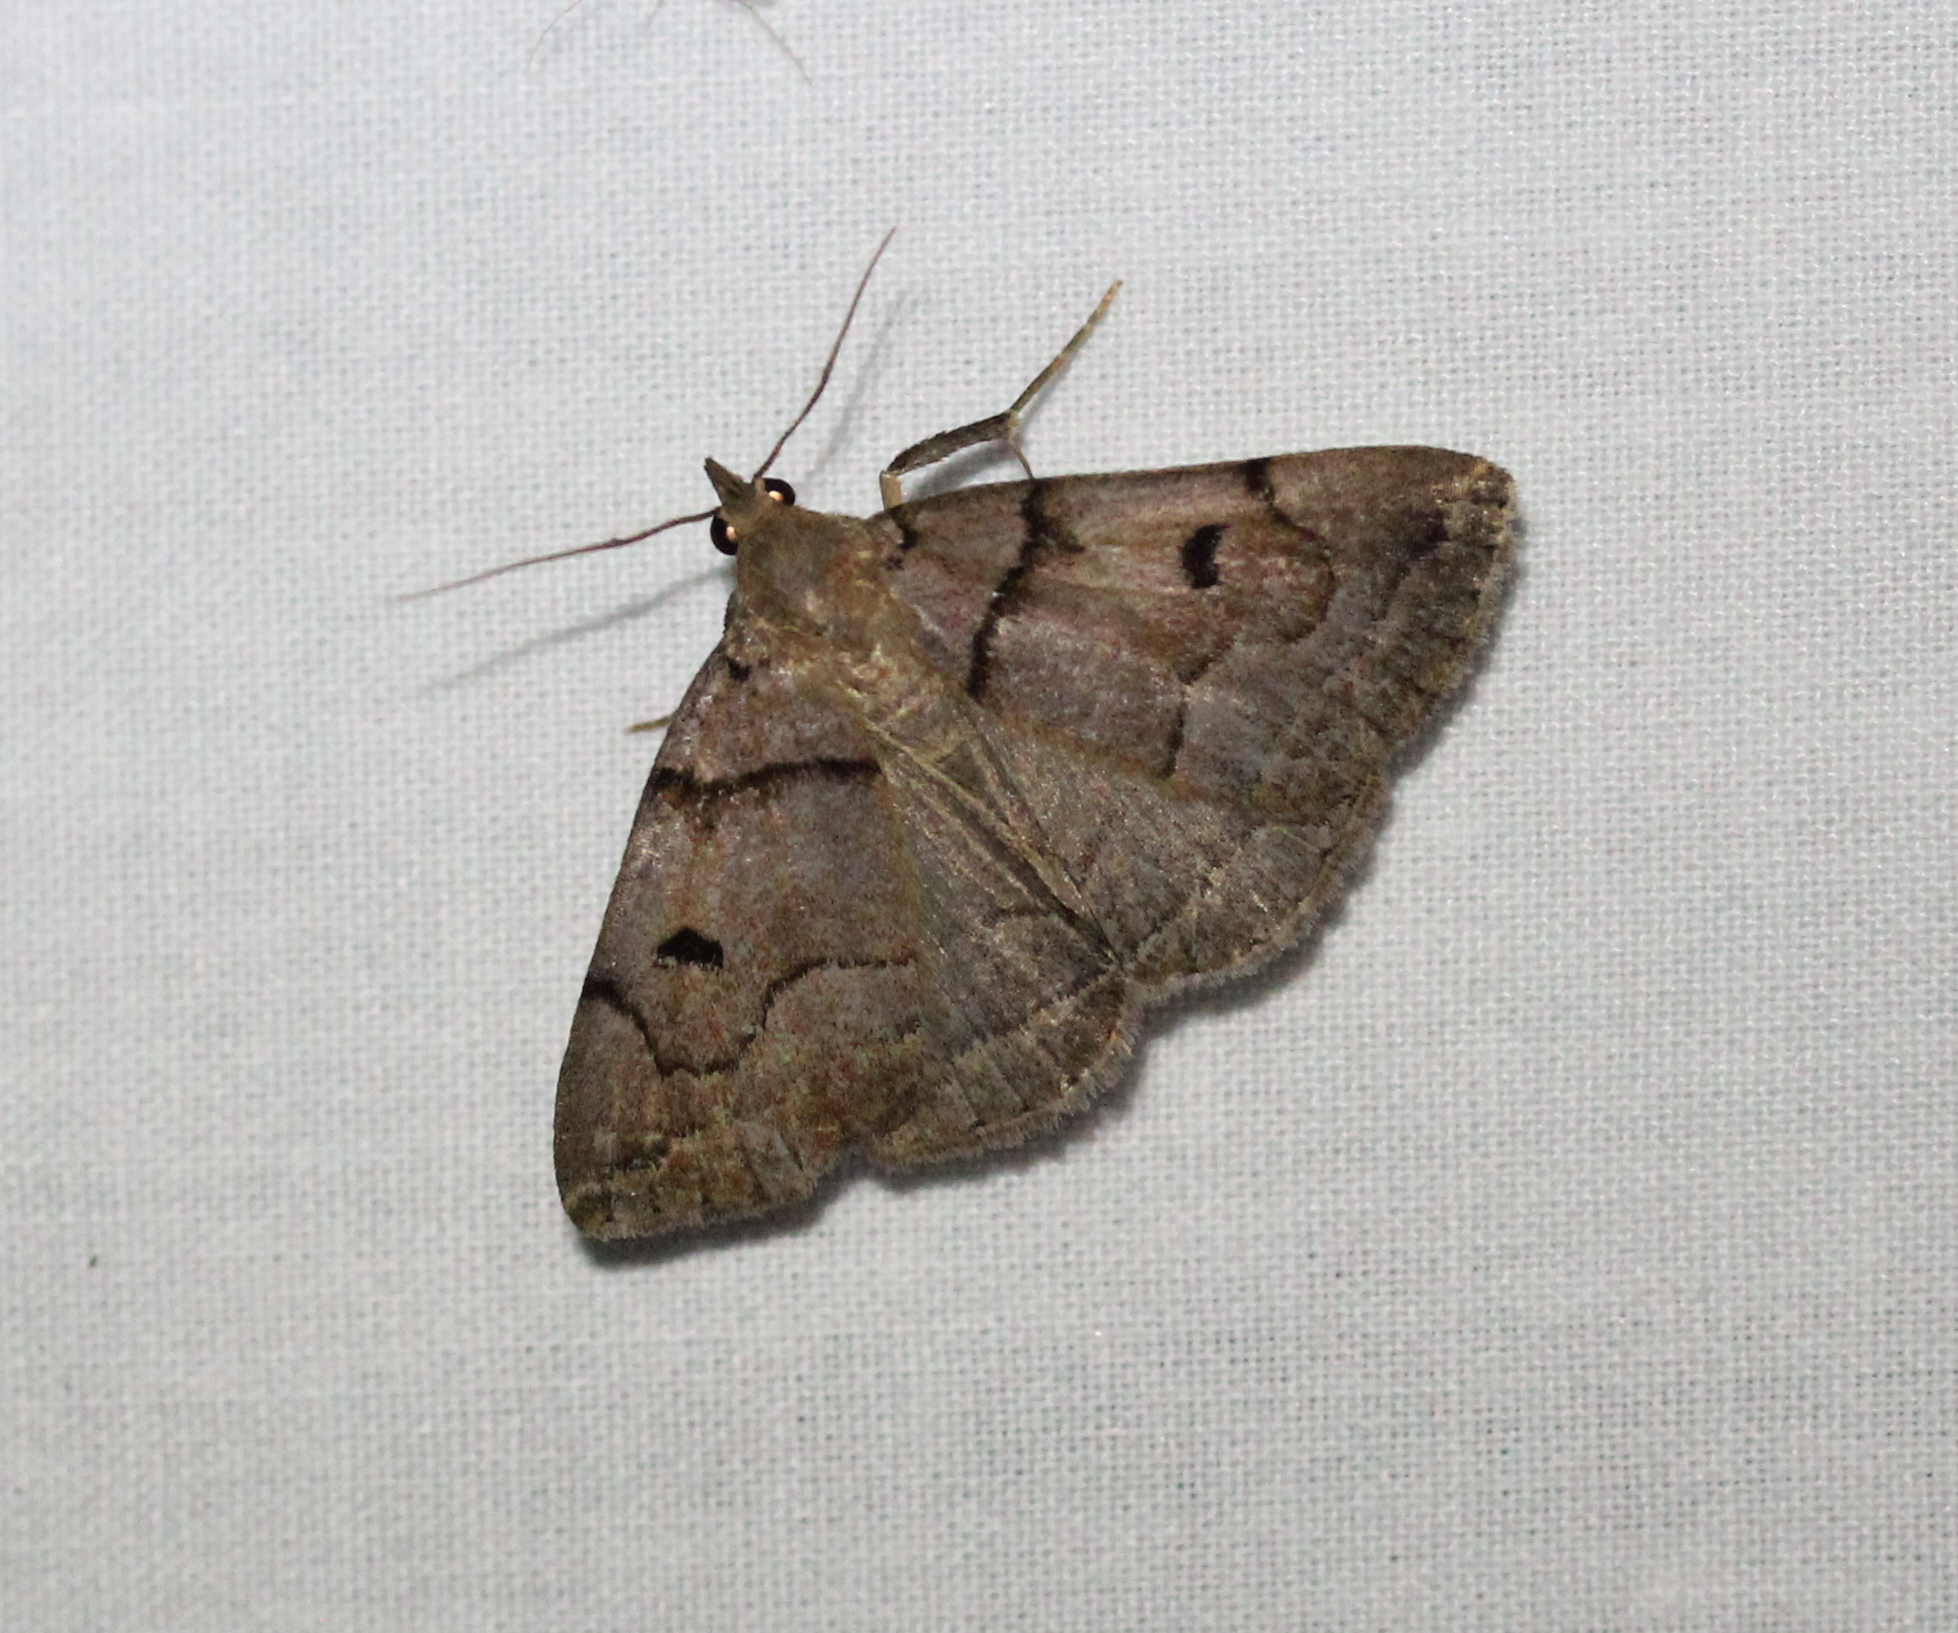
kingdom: Animalia
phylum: Arthropoda
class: Insecta
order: Lepidoptera
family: Erebidae
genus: Zanclognatha
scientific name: Zanclognatha laevigata
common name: Variable fan-foot
